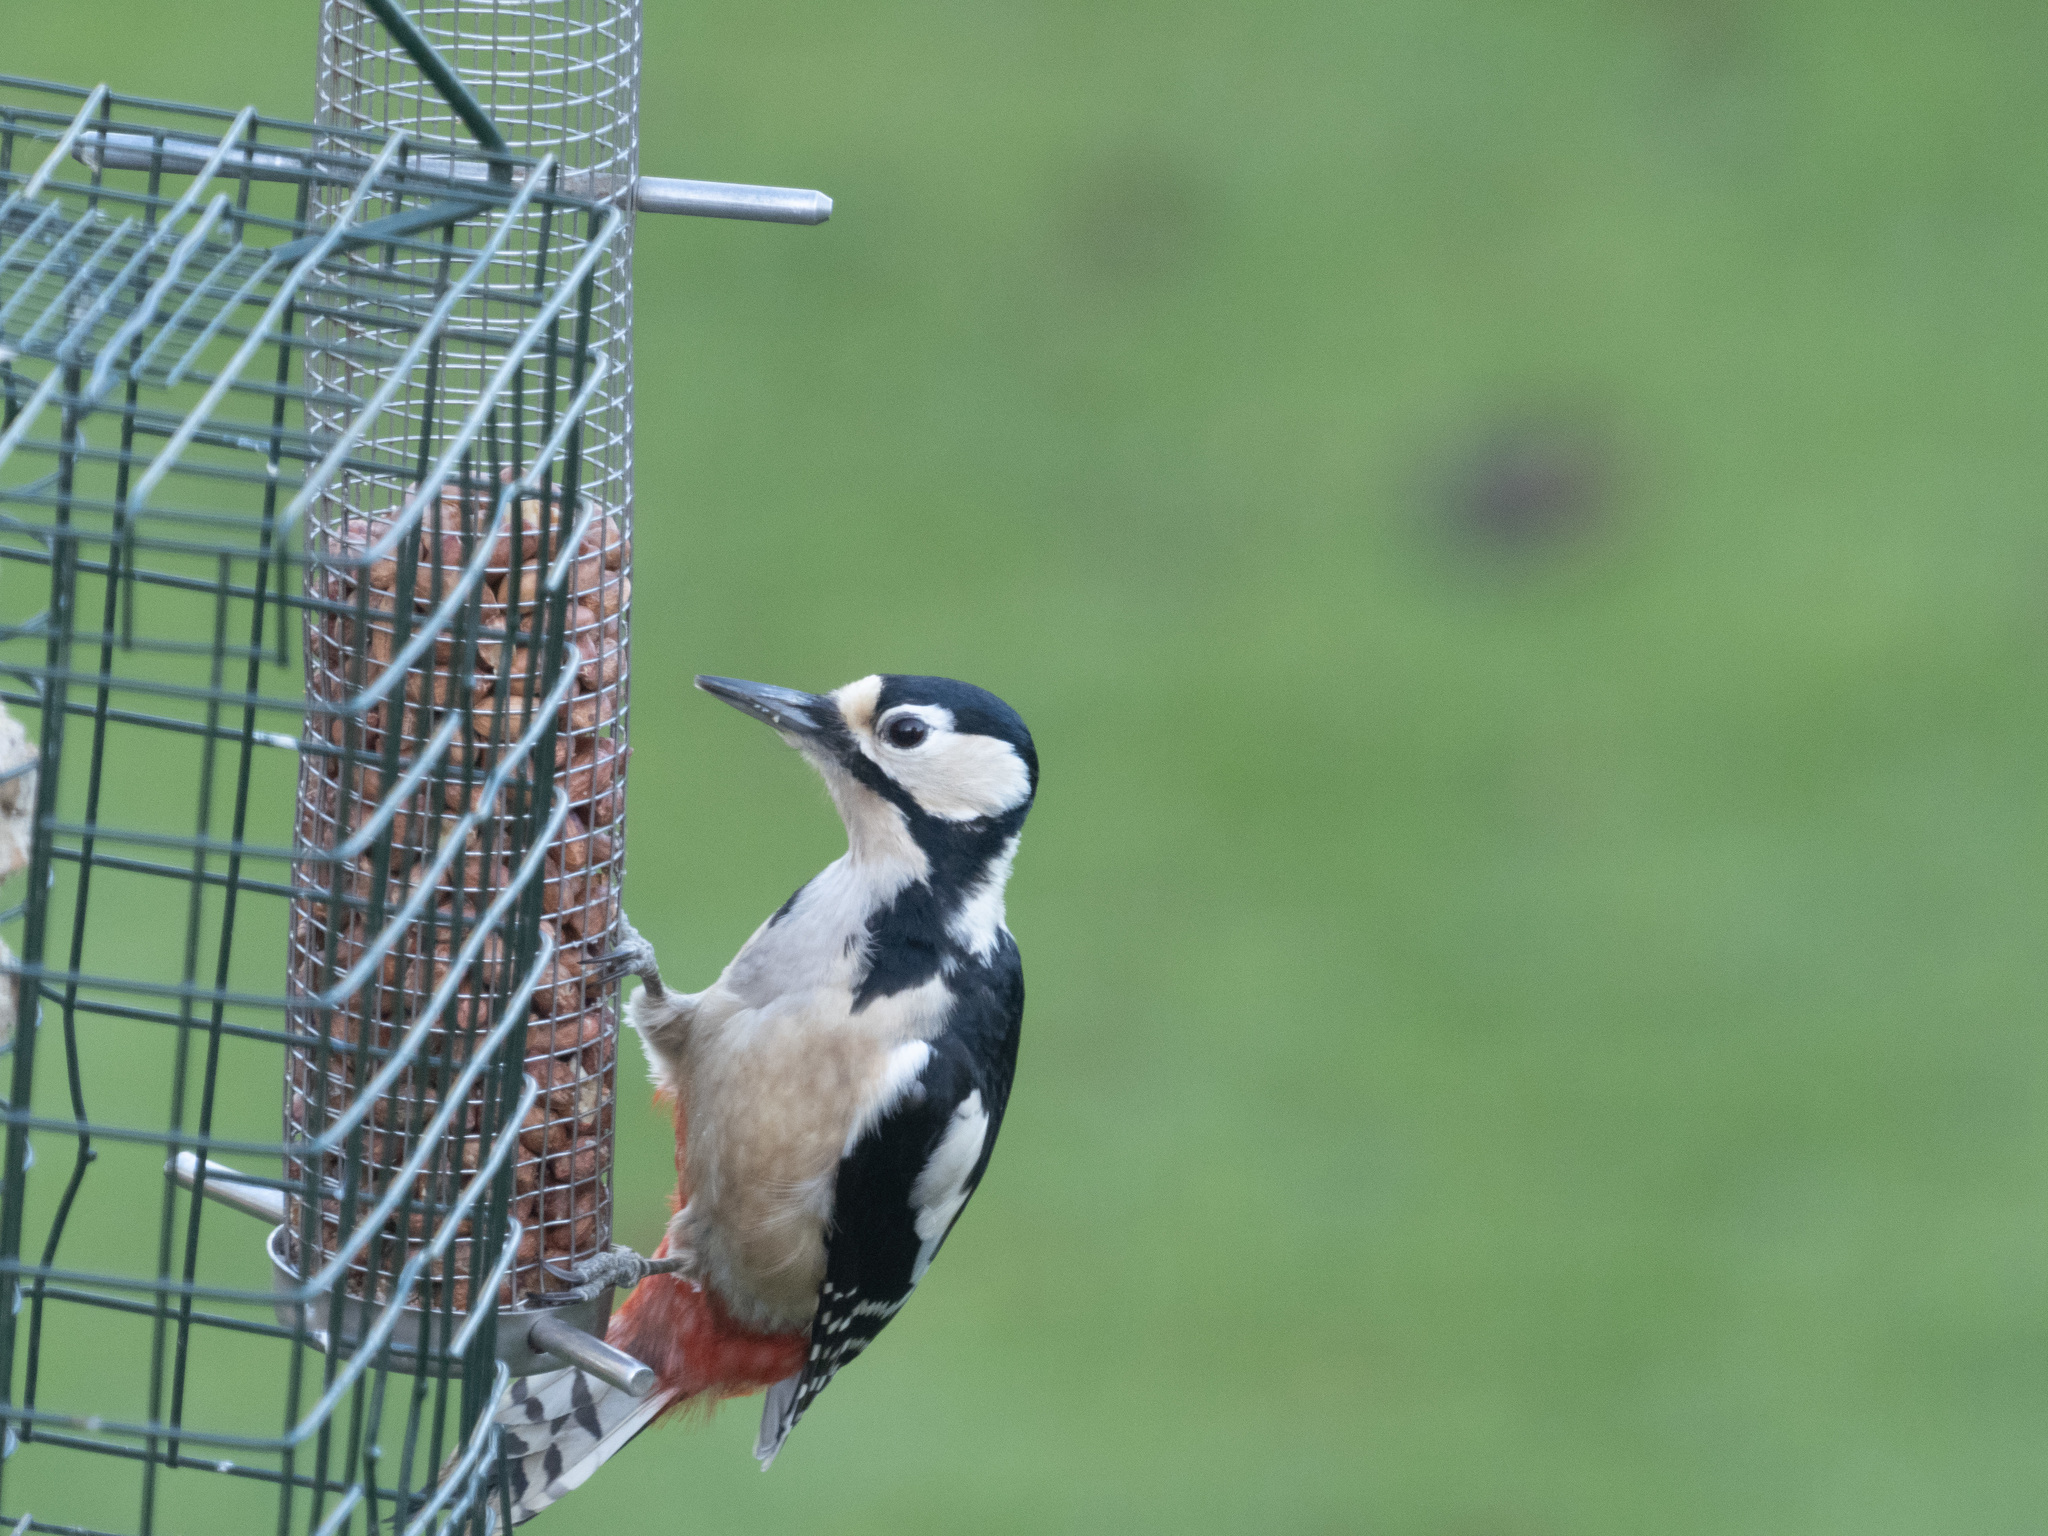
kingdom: Animalia
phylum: Chordata
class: Aves
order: Piciformes
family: Picidae
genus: Dendrocopos
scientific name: Dendrocopos major
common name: Great spotted woodpecker
